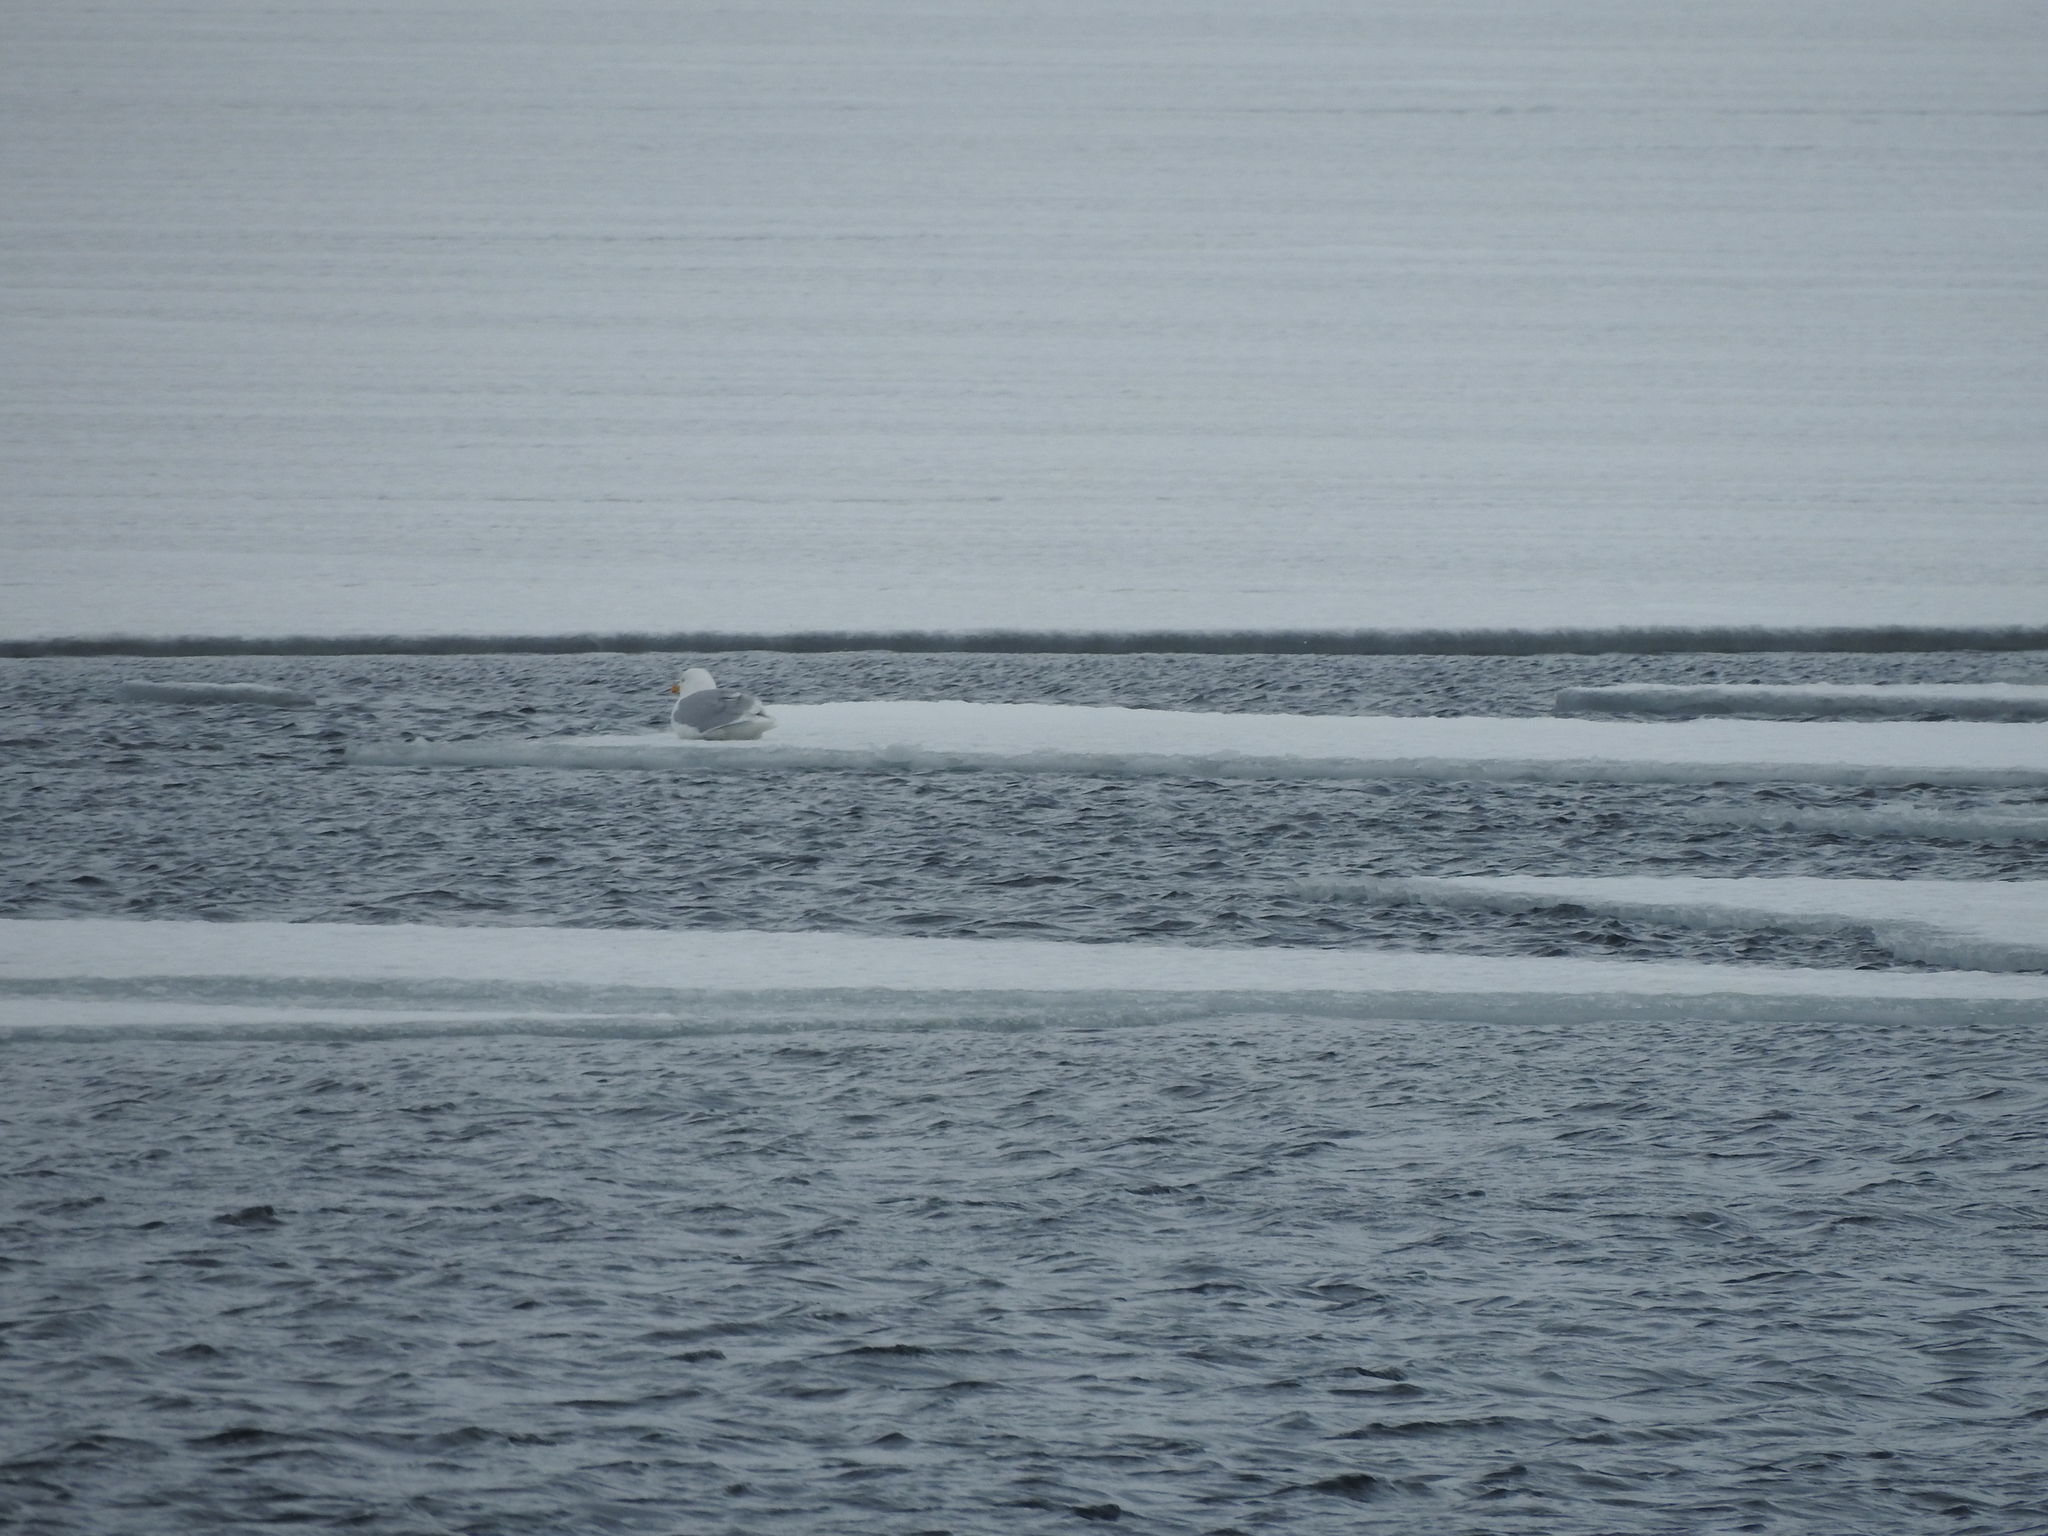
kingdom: Animalia
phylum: Chordata
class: Aves
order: Charadriiformes
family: Laridae
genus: Larus
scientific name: Larus hyperboreus
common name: Glaucous gull
